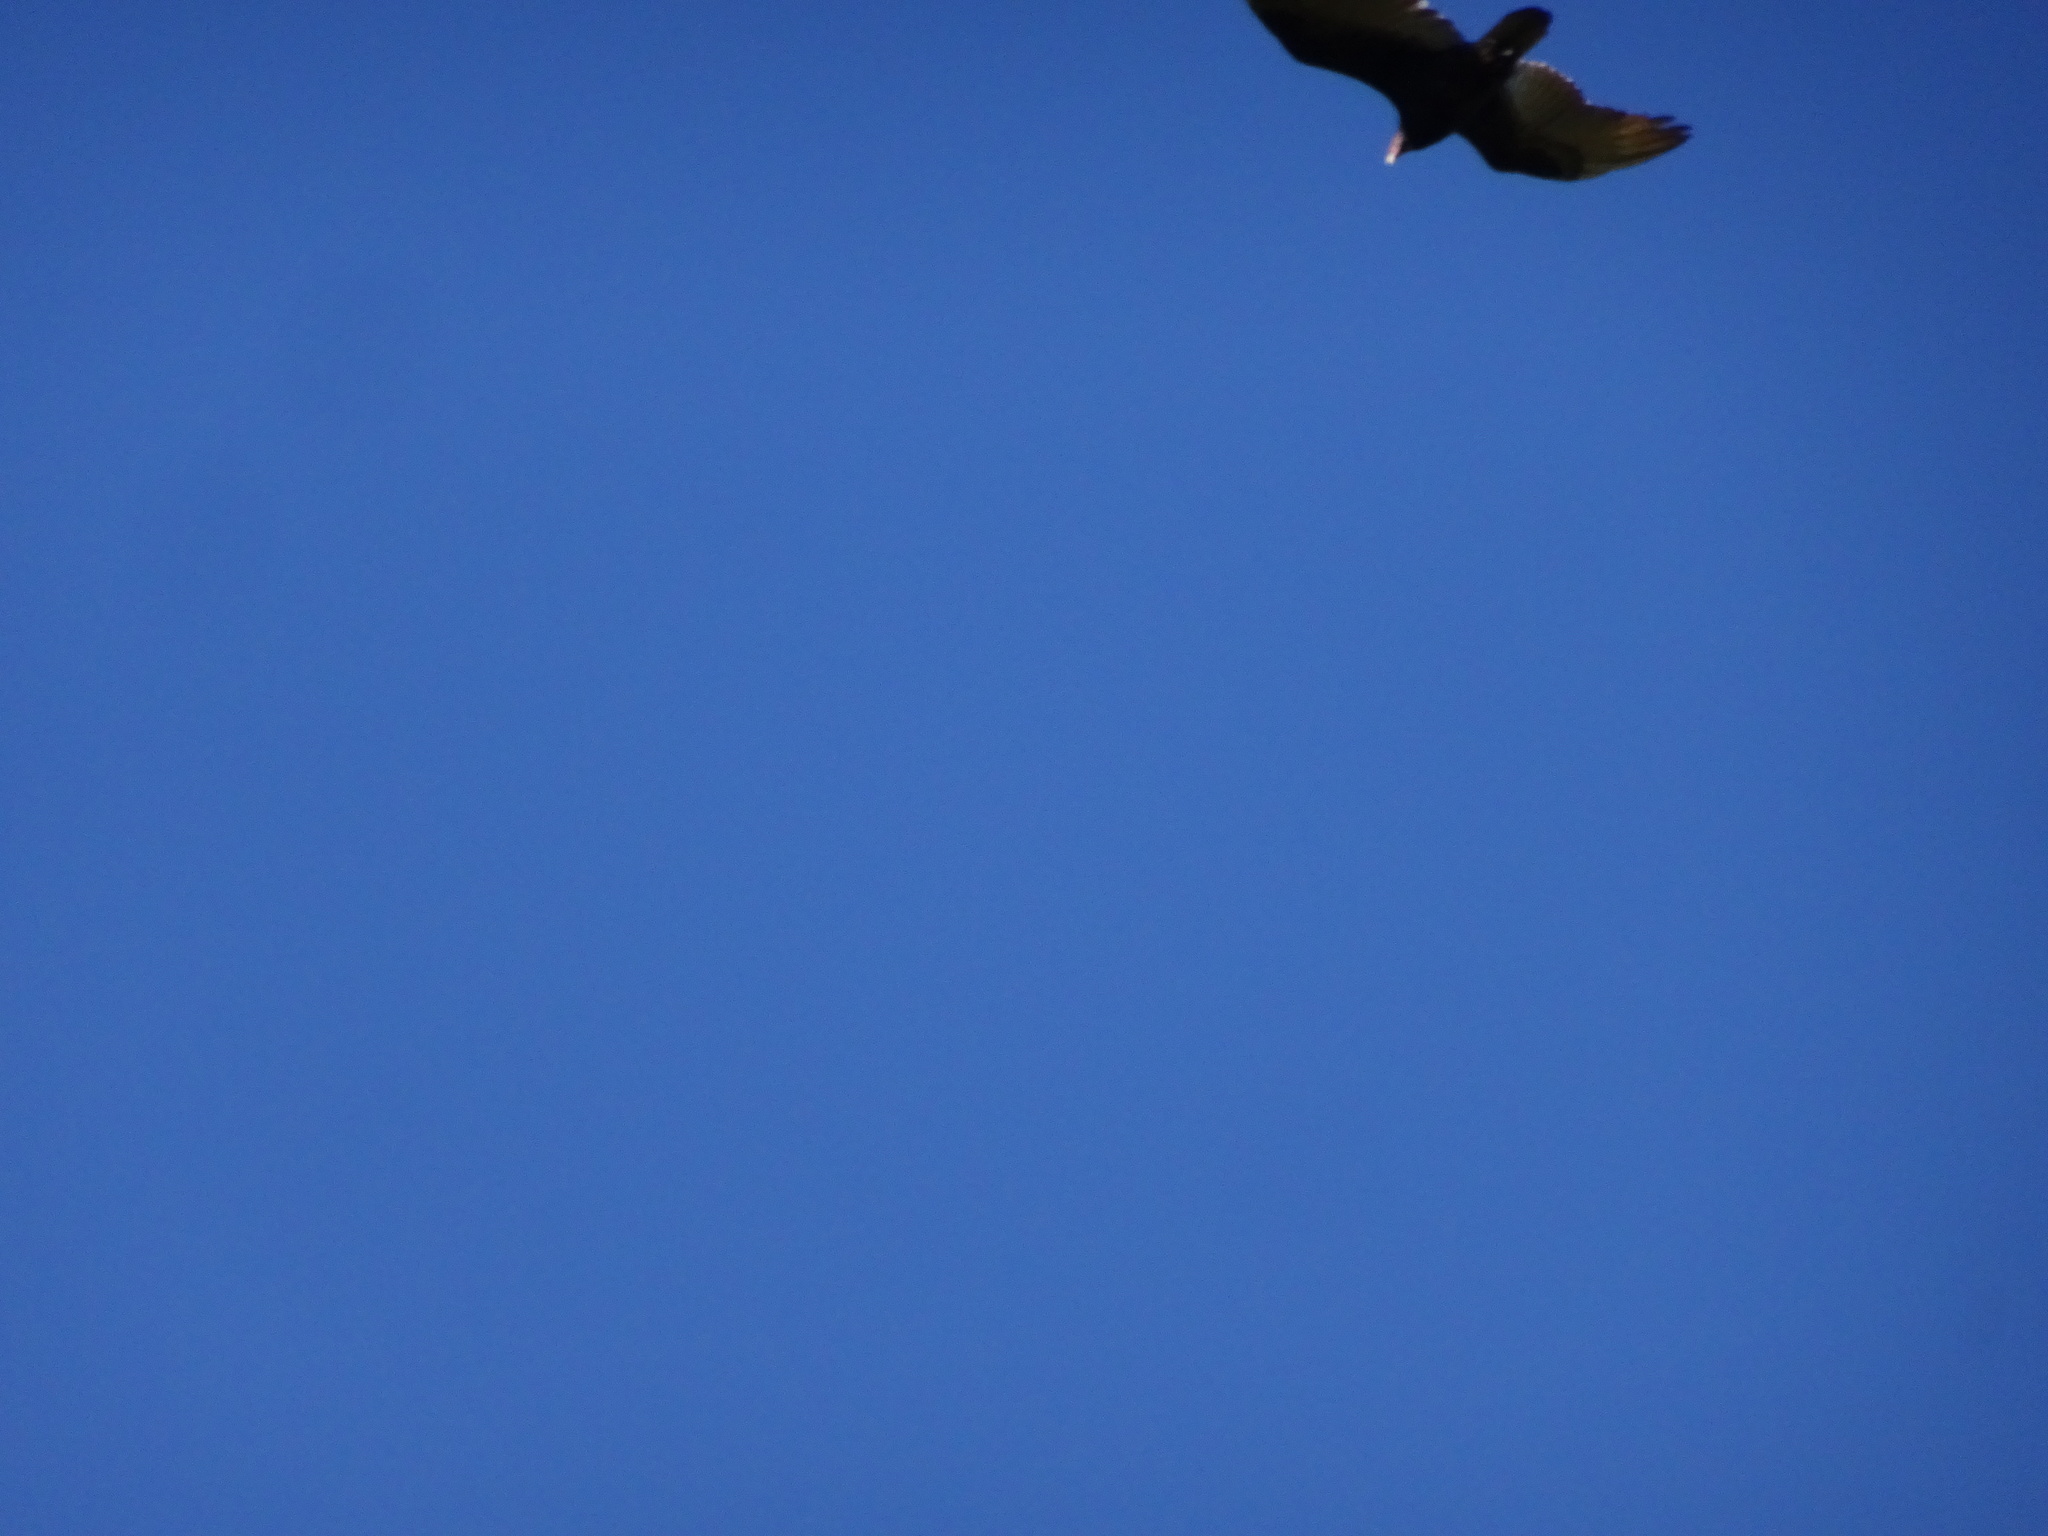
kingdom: Animalia
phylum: Chordata
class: Aves
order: Accipitriformes
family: Cathartidae
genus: Cathartes
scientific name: Cathartes aura
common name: Turkey vulture
